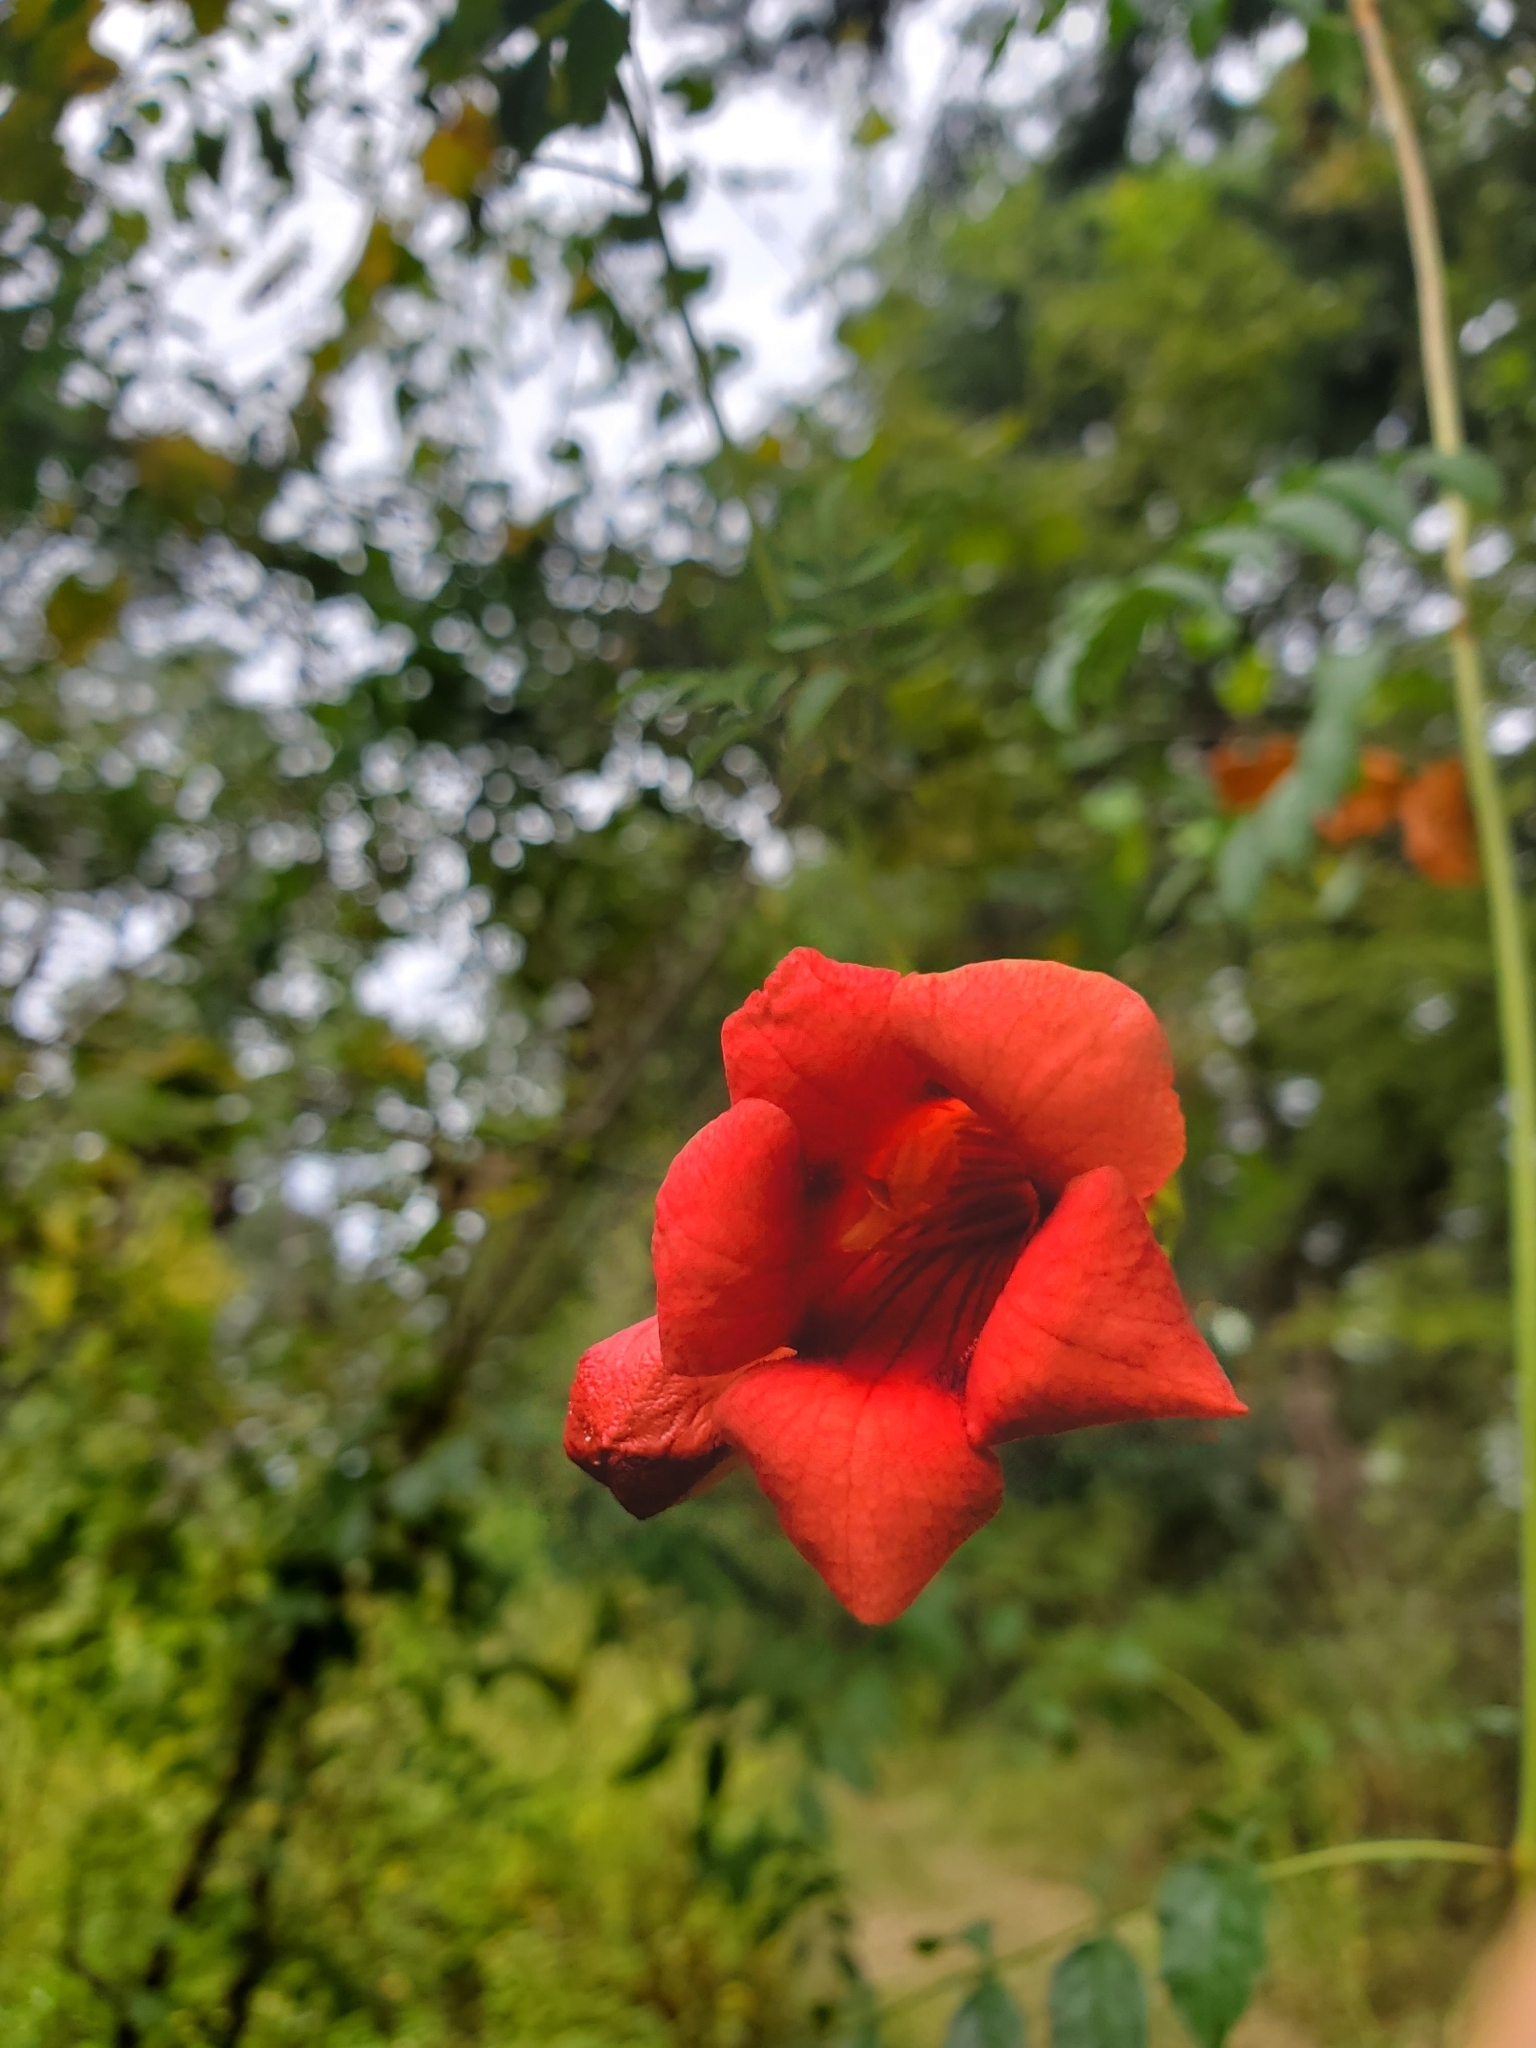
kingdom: Plantae
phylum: Tracheophyta
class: Magnoliopsida
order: Lamiales
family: Bignoniaceae
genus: Campsis
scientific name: Campsis radicans
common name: Trumpet-creeper
